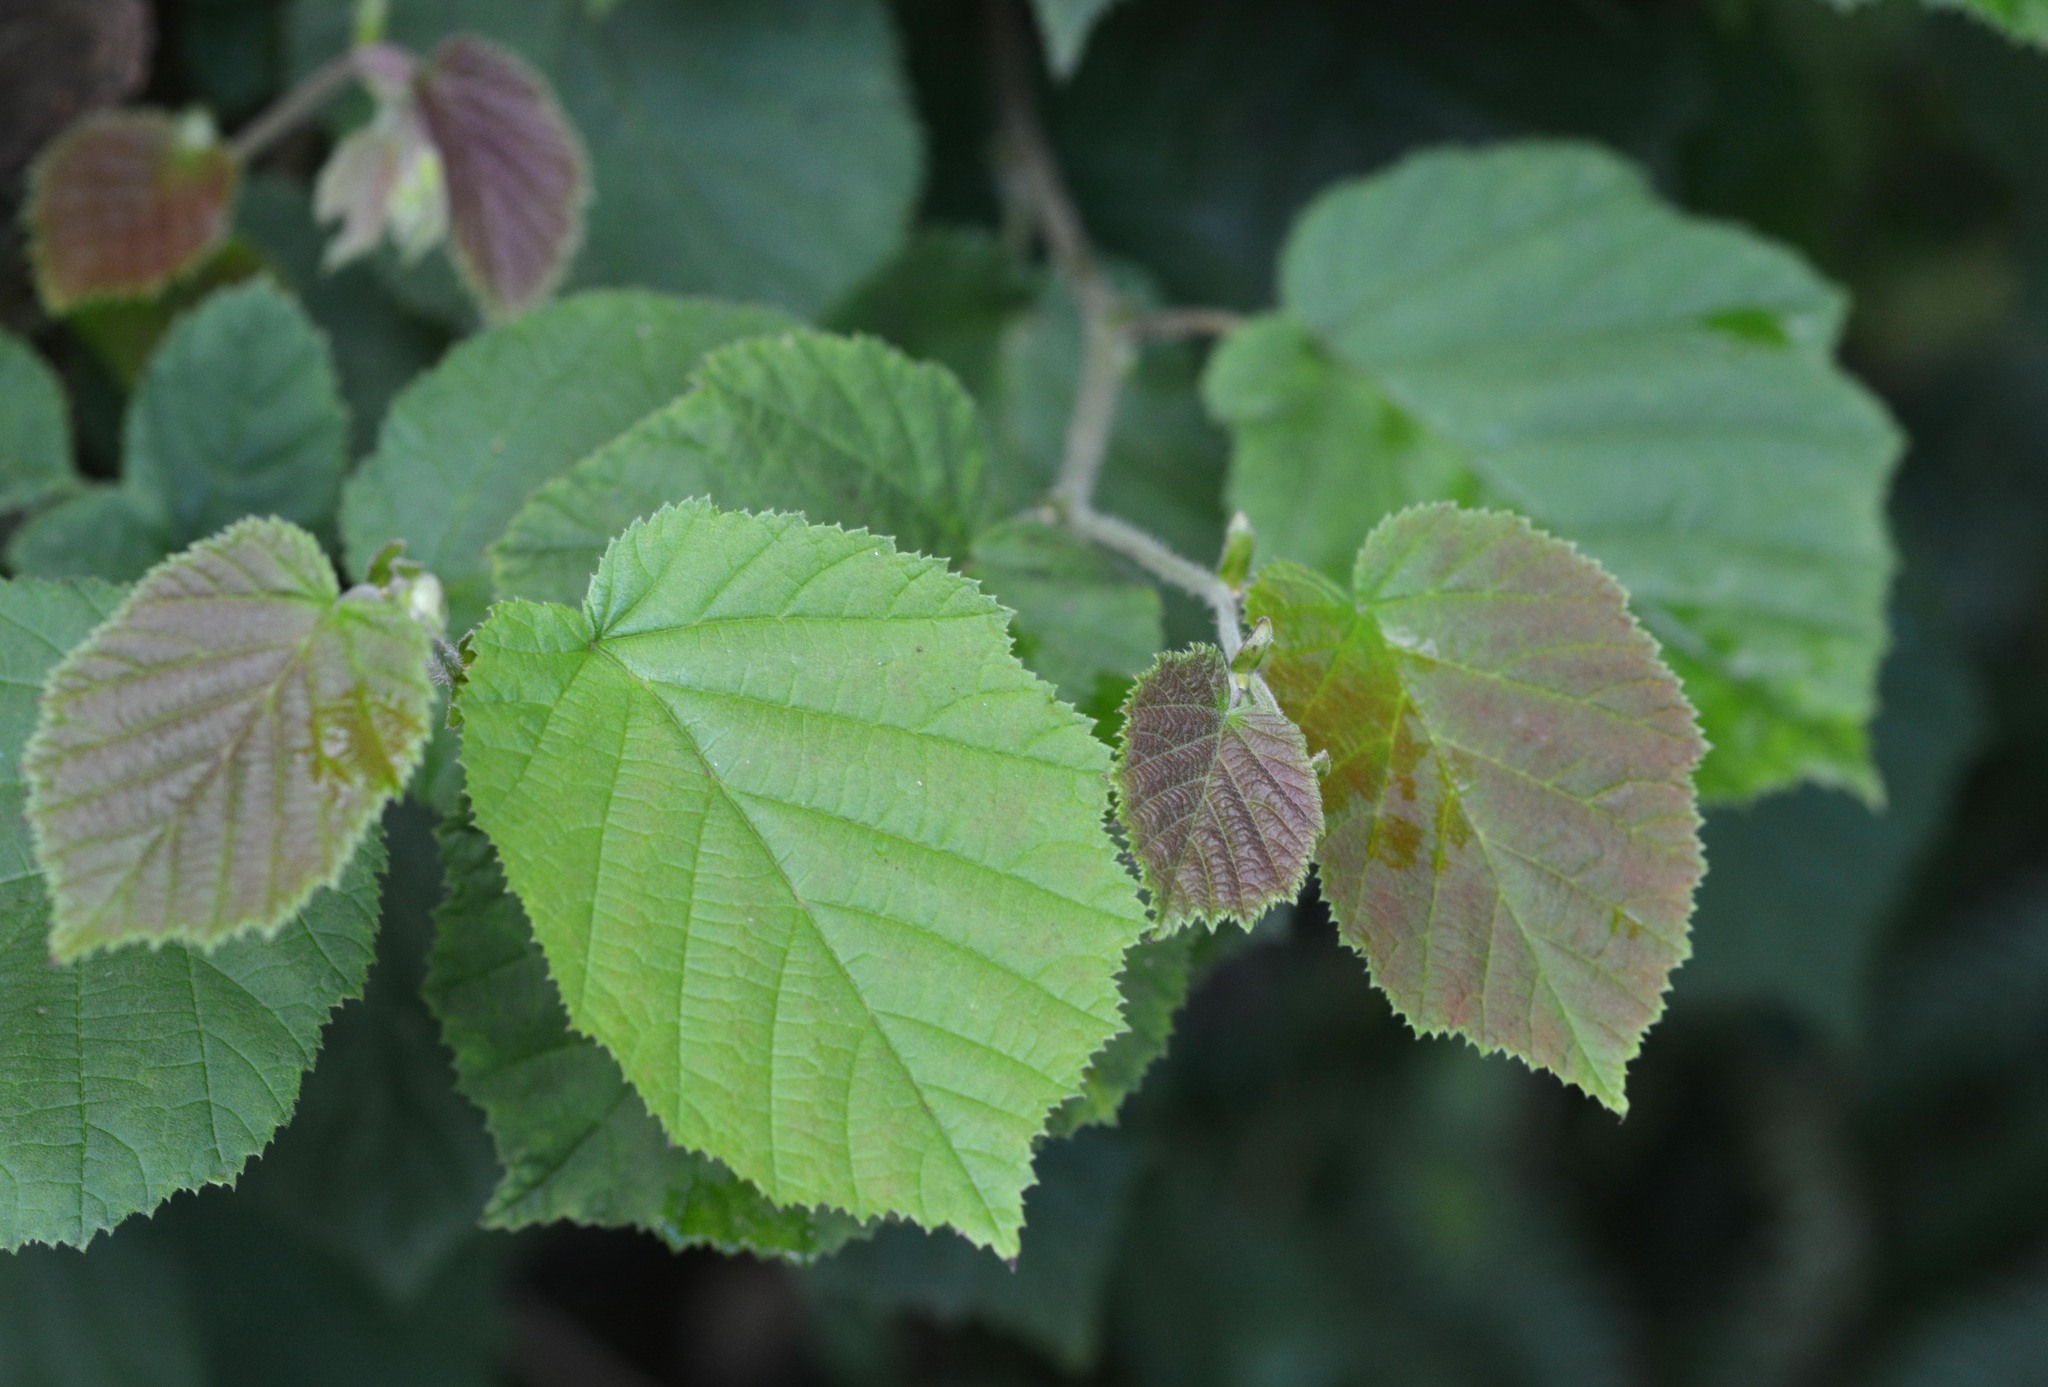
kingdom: Plantae
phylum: Tracheophyta
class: Magnoliopsida
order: Fagales
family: Betulaceae
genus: Corylus
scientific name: Corylus avellana
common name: European hazel
